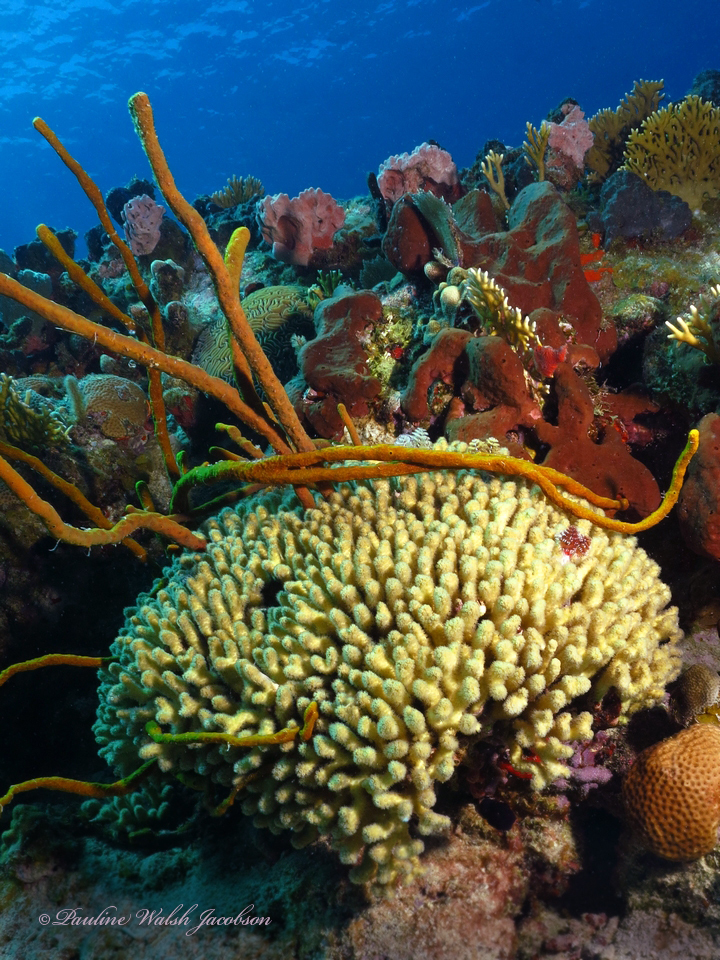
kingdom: Animalia
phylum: Cnidaria
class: Anthozoa
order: Scleractinia
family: Pocilloporidae
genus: Madracis
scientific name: Madracis auretenra
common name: Yellow pencil coral
